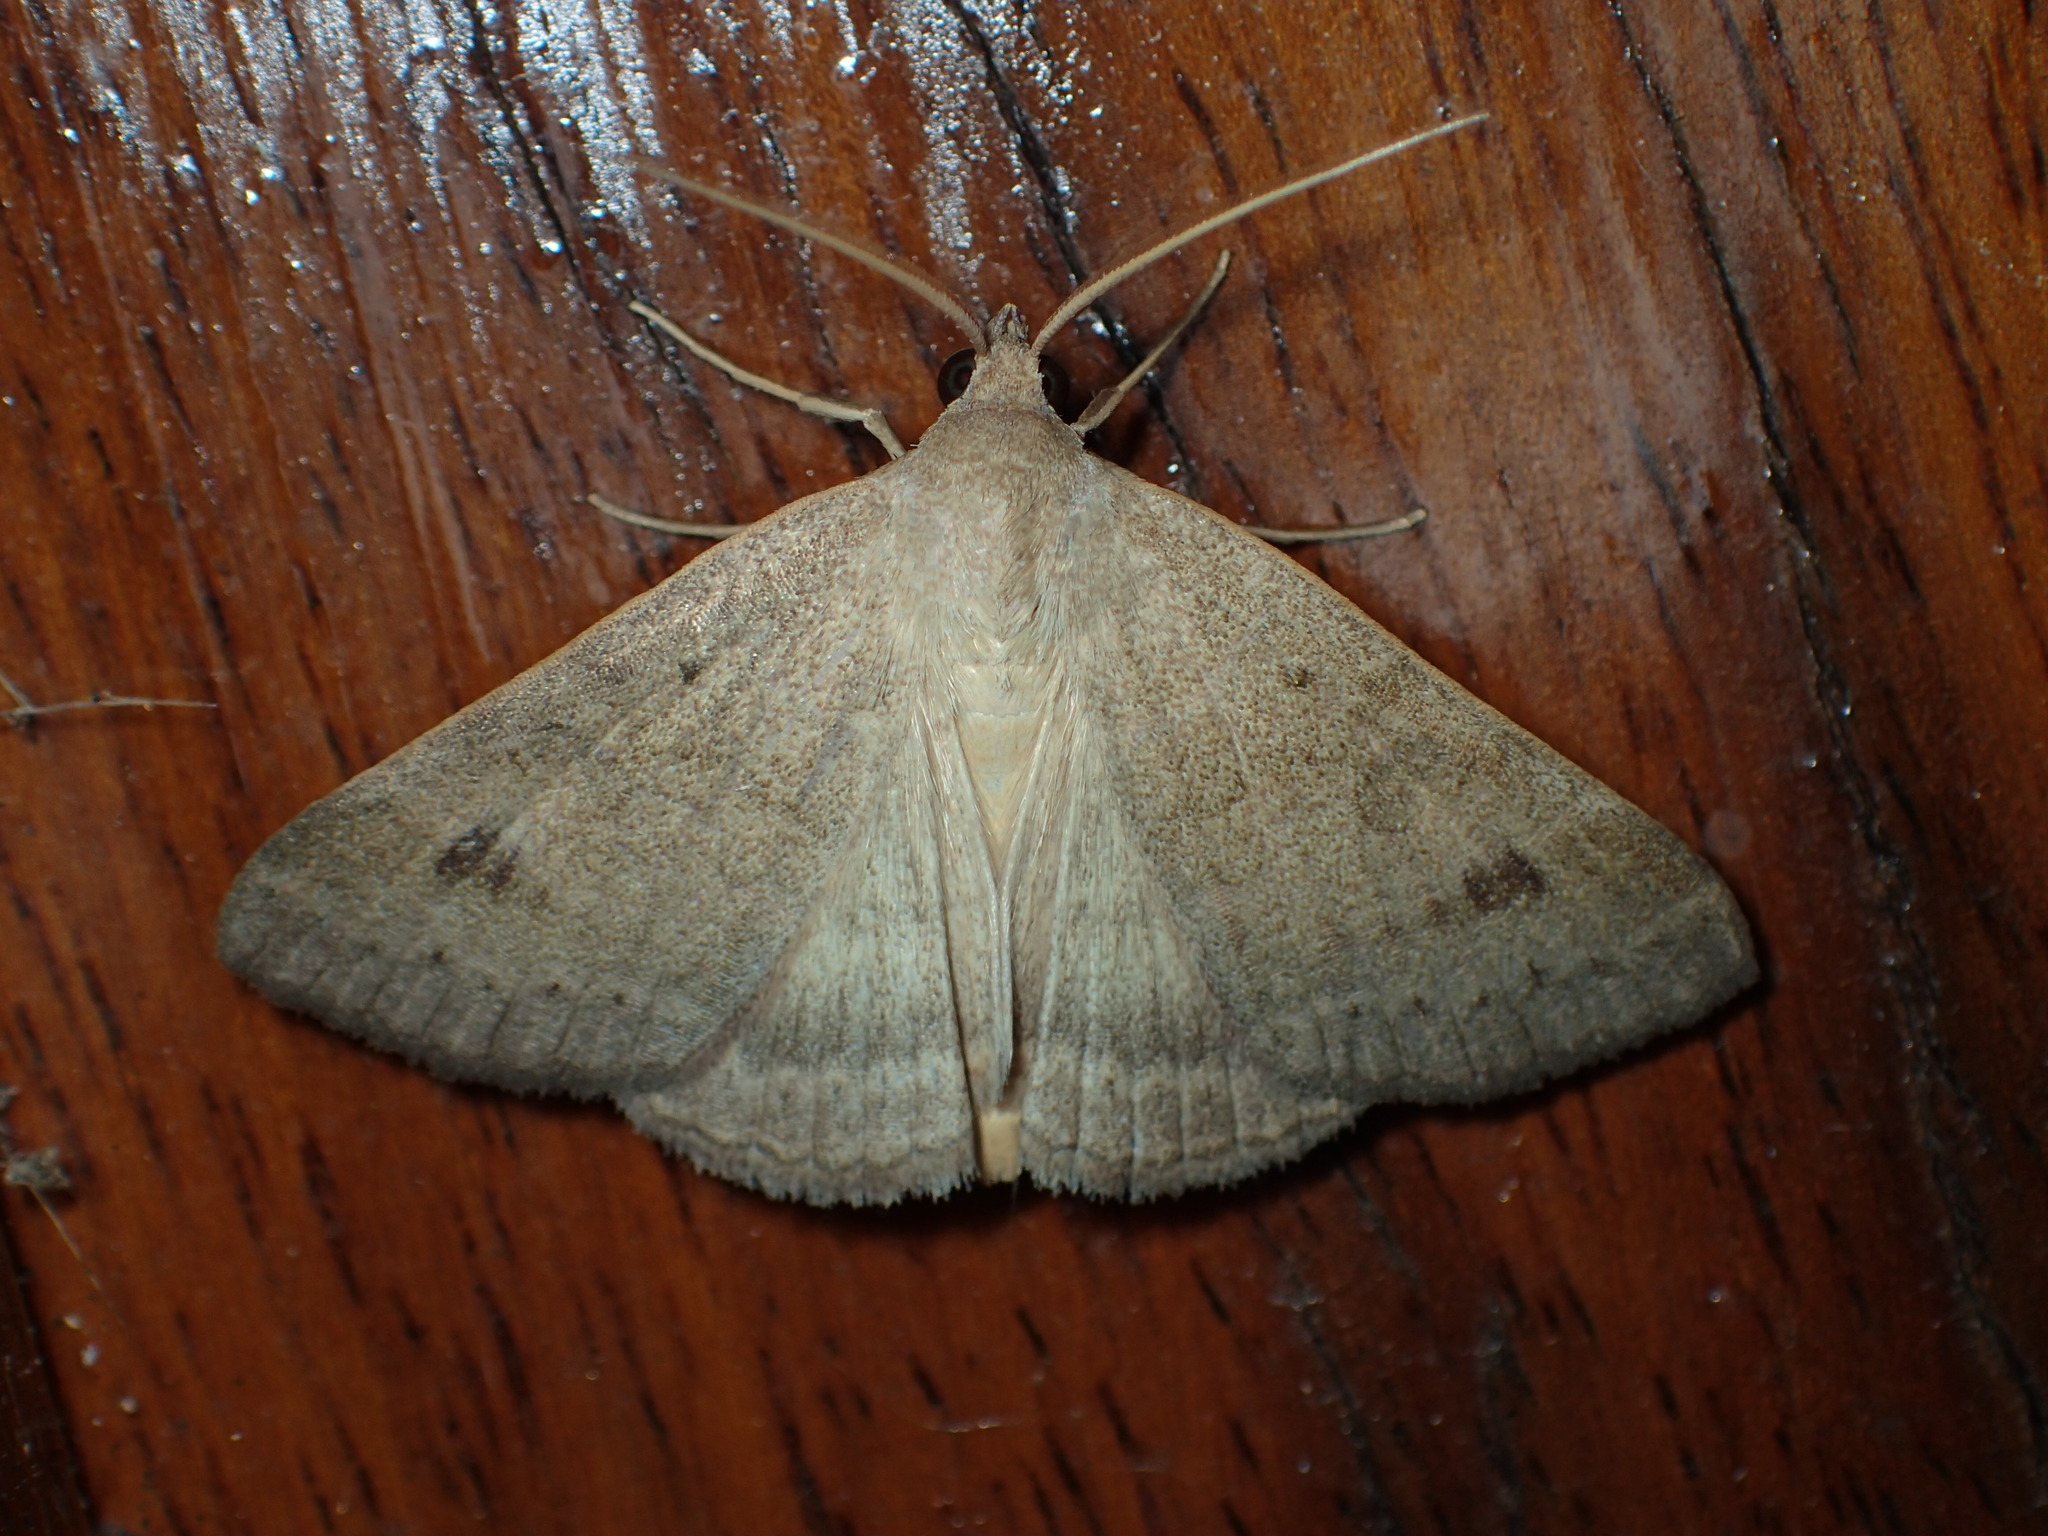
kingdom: Animalia
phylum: Arthropoda
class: Insecta
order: Lepidoptera
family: Erebidae
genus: Caenurgia
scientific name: Caenurgia chloropha
